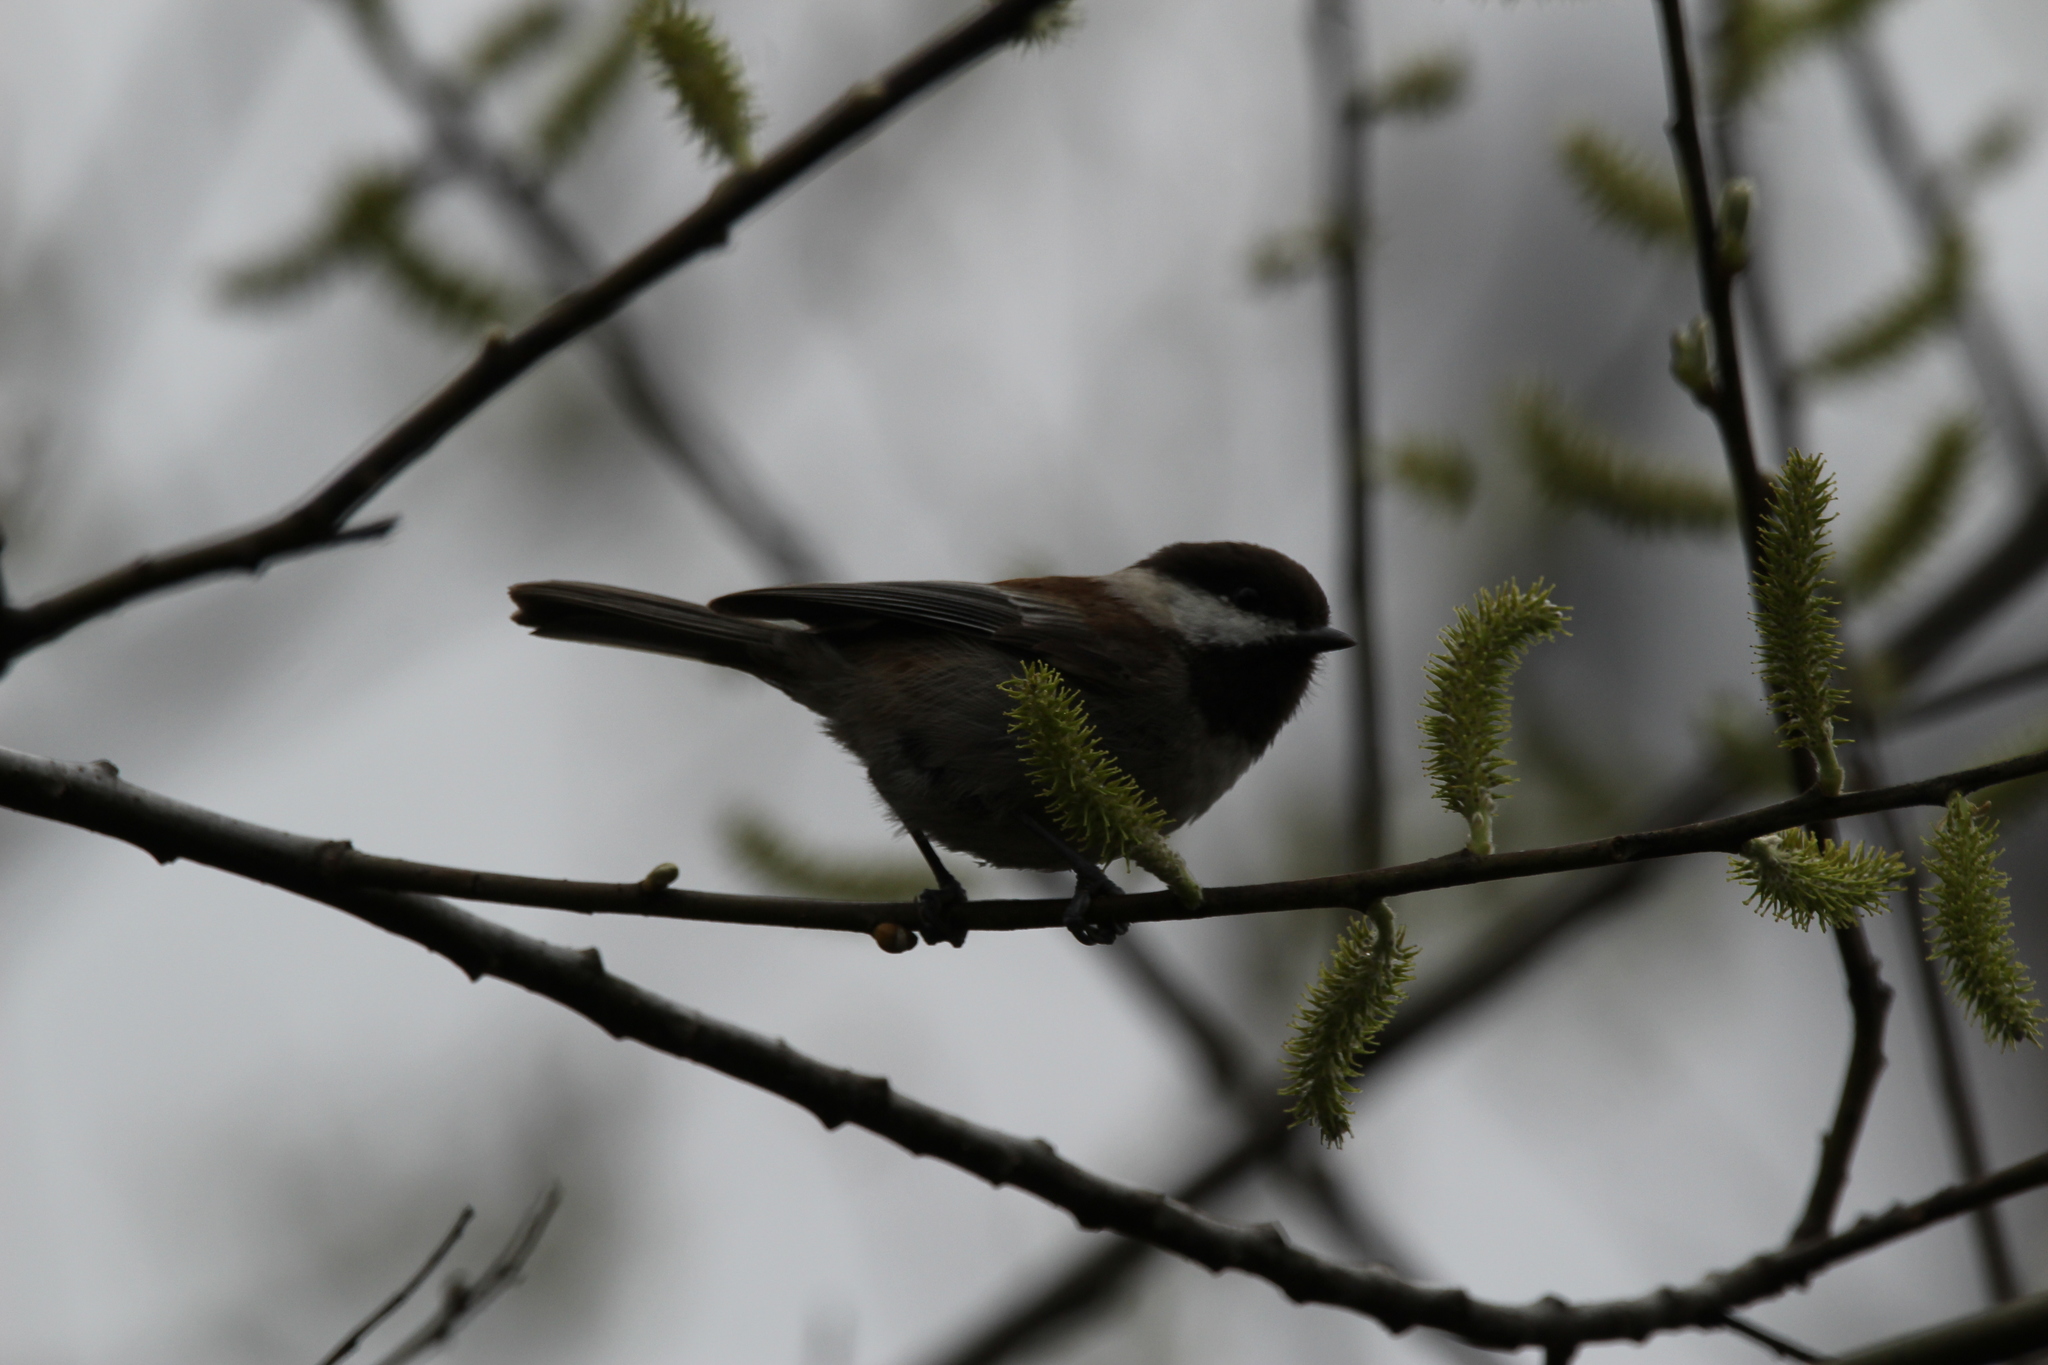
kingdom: Animalia
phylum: Chordata
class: Aves
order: Passeriformes
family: Paridae
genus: Poecile
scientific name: Poecile rufescens
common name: Chestnut-backed chickadee
